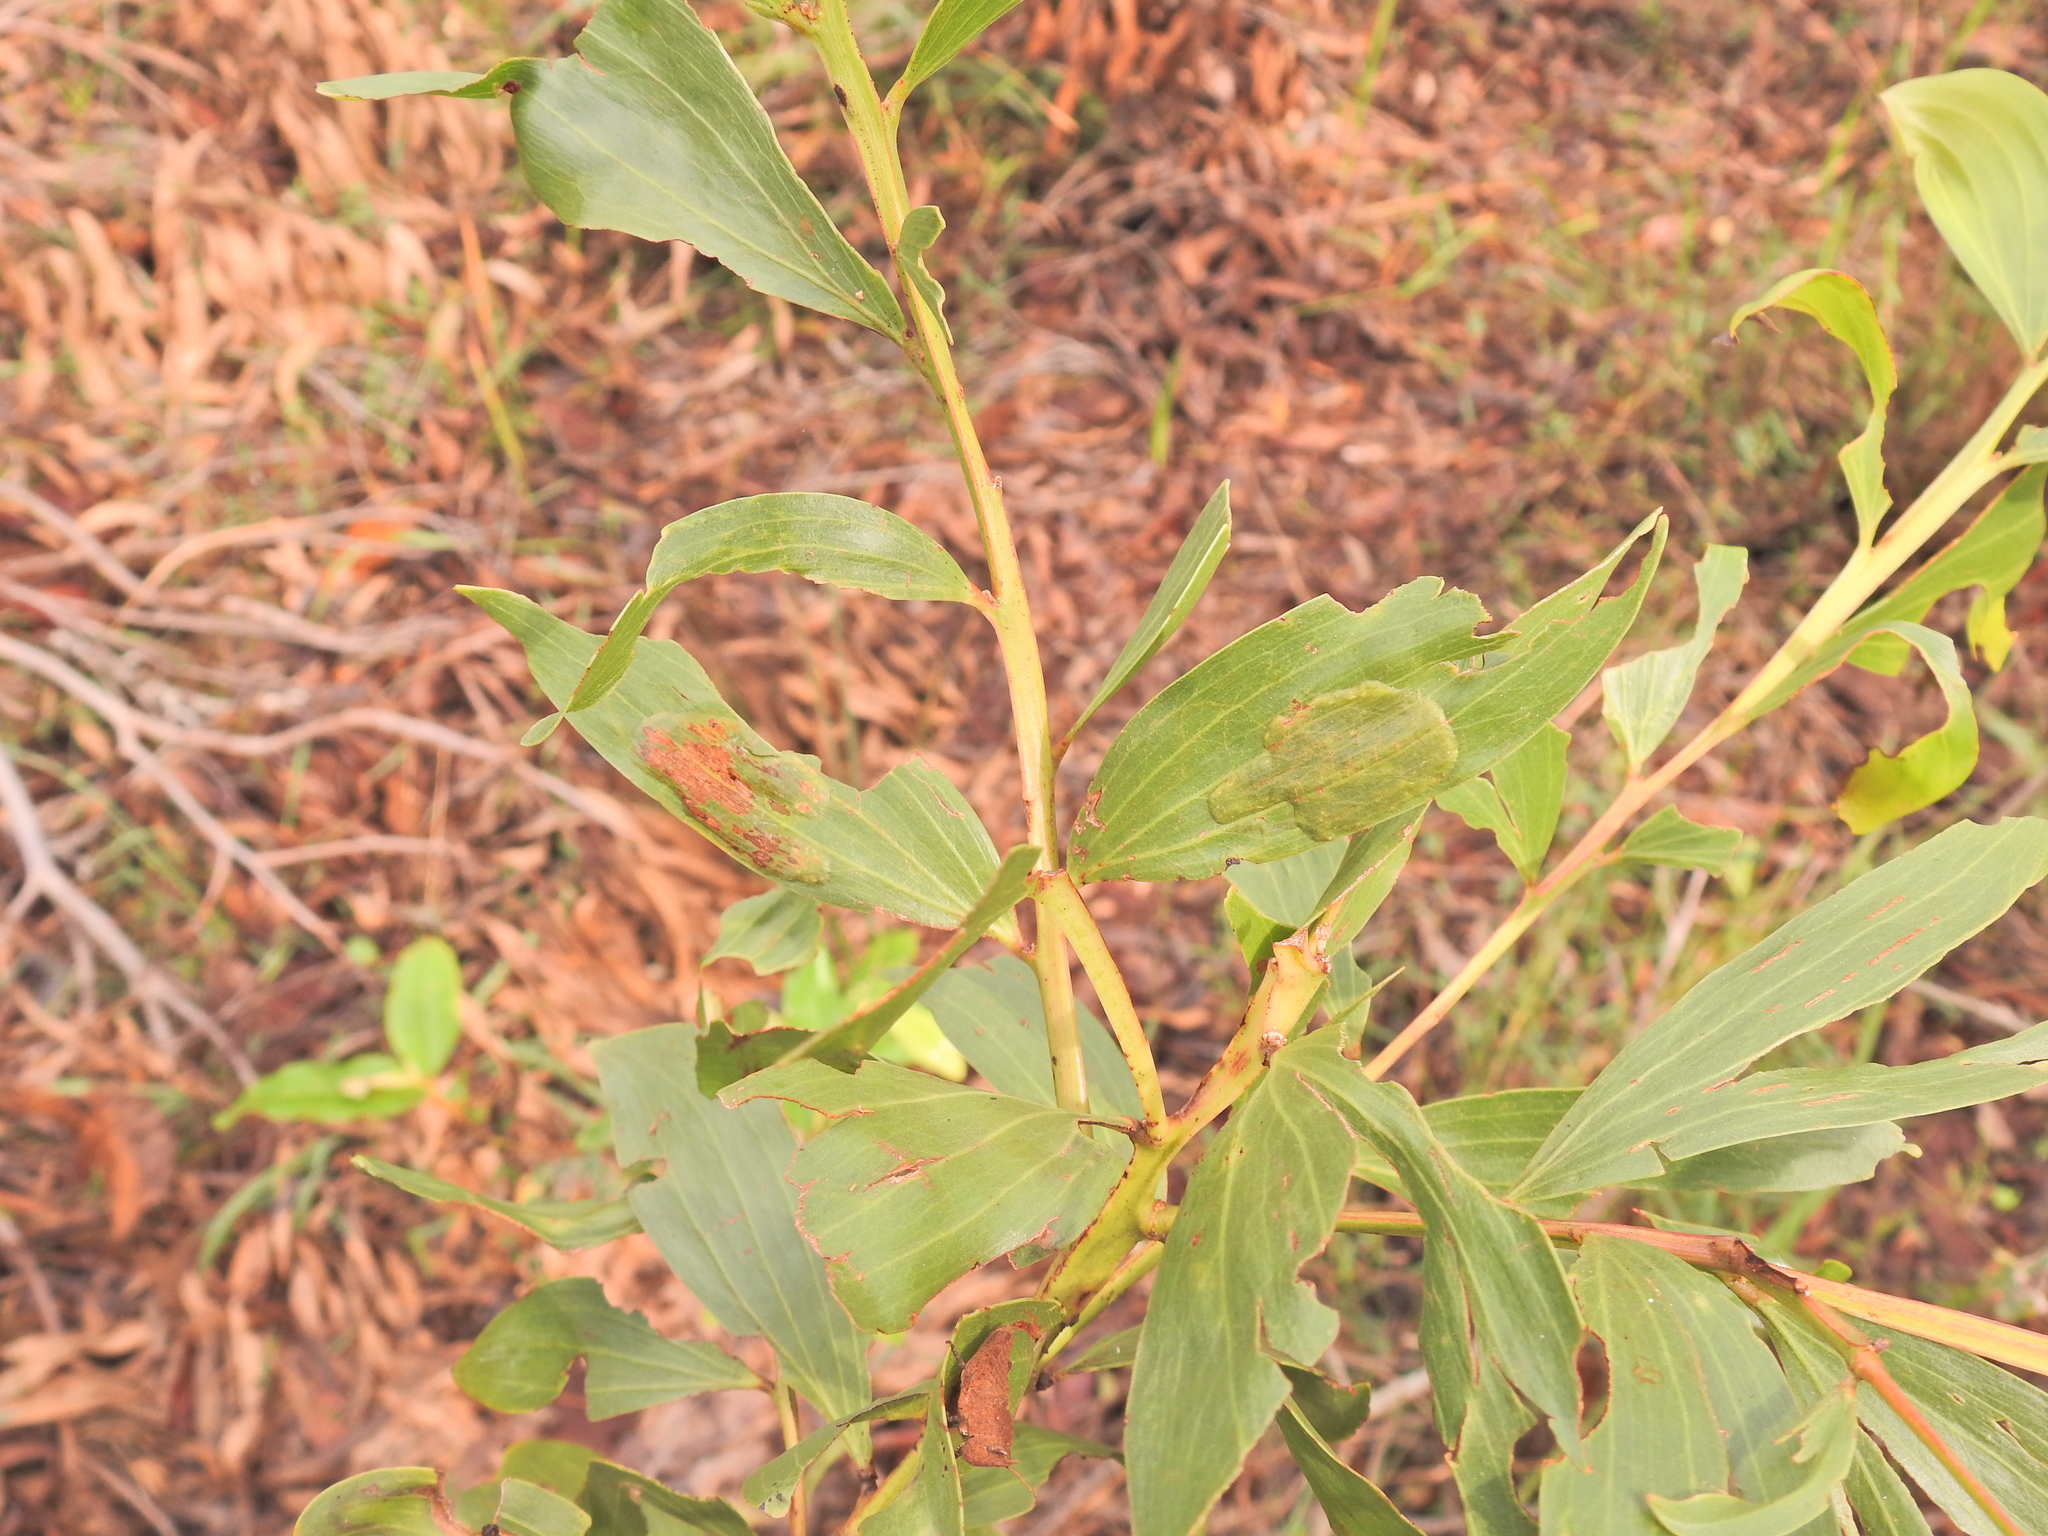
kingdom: Animalia
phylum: Arthropoda
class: Insecta
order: Lepidoptera
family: Gracillariidae
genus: Acrocercops
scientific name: Acrocercops didymella
